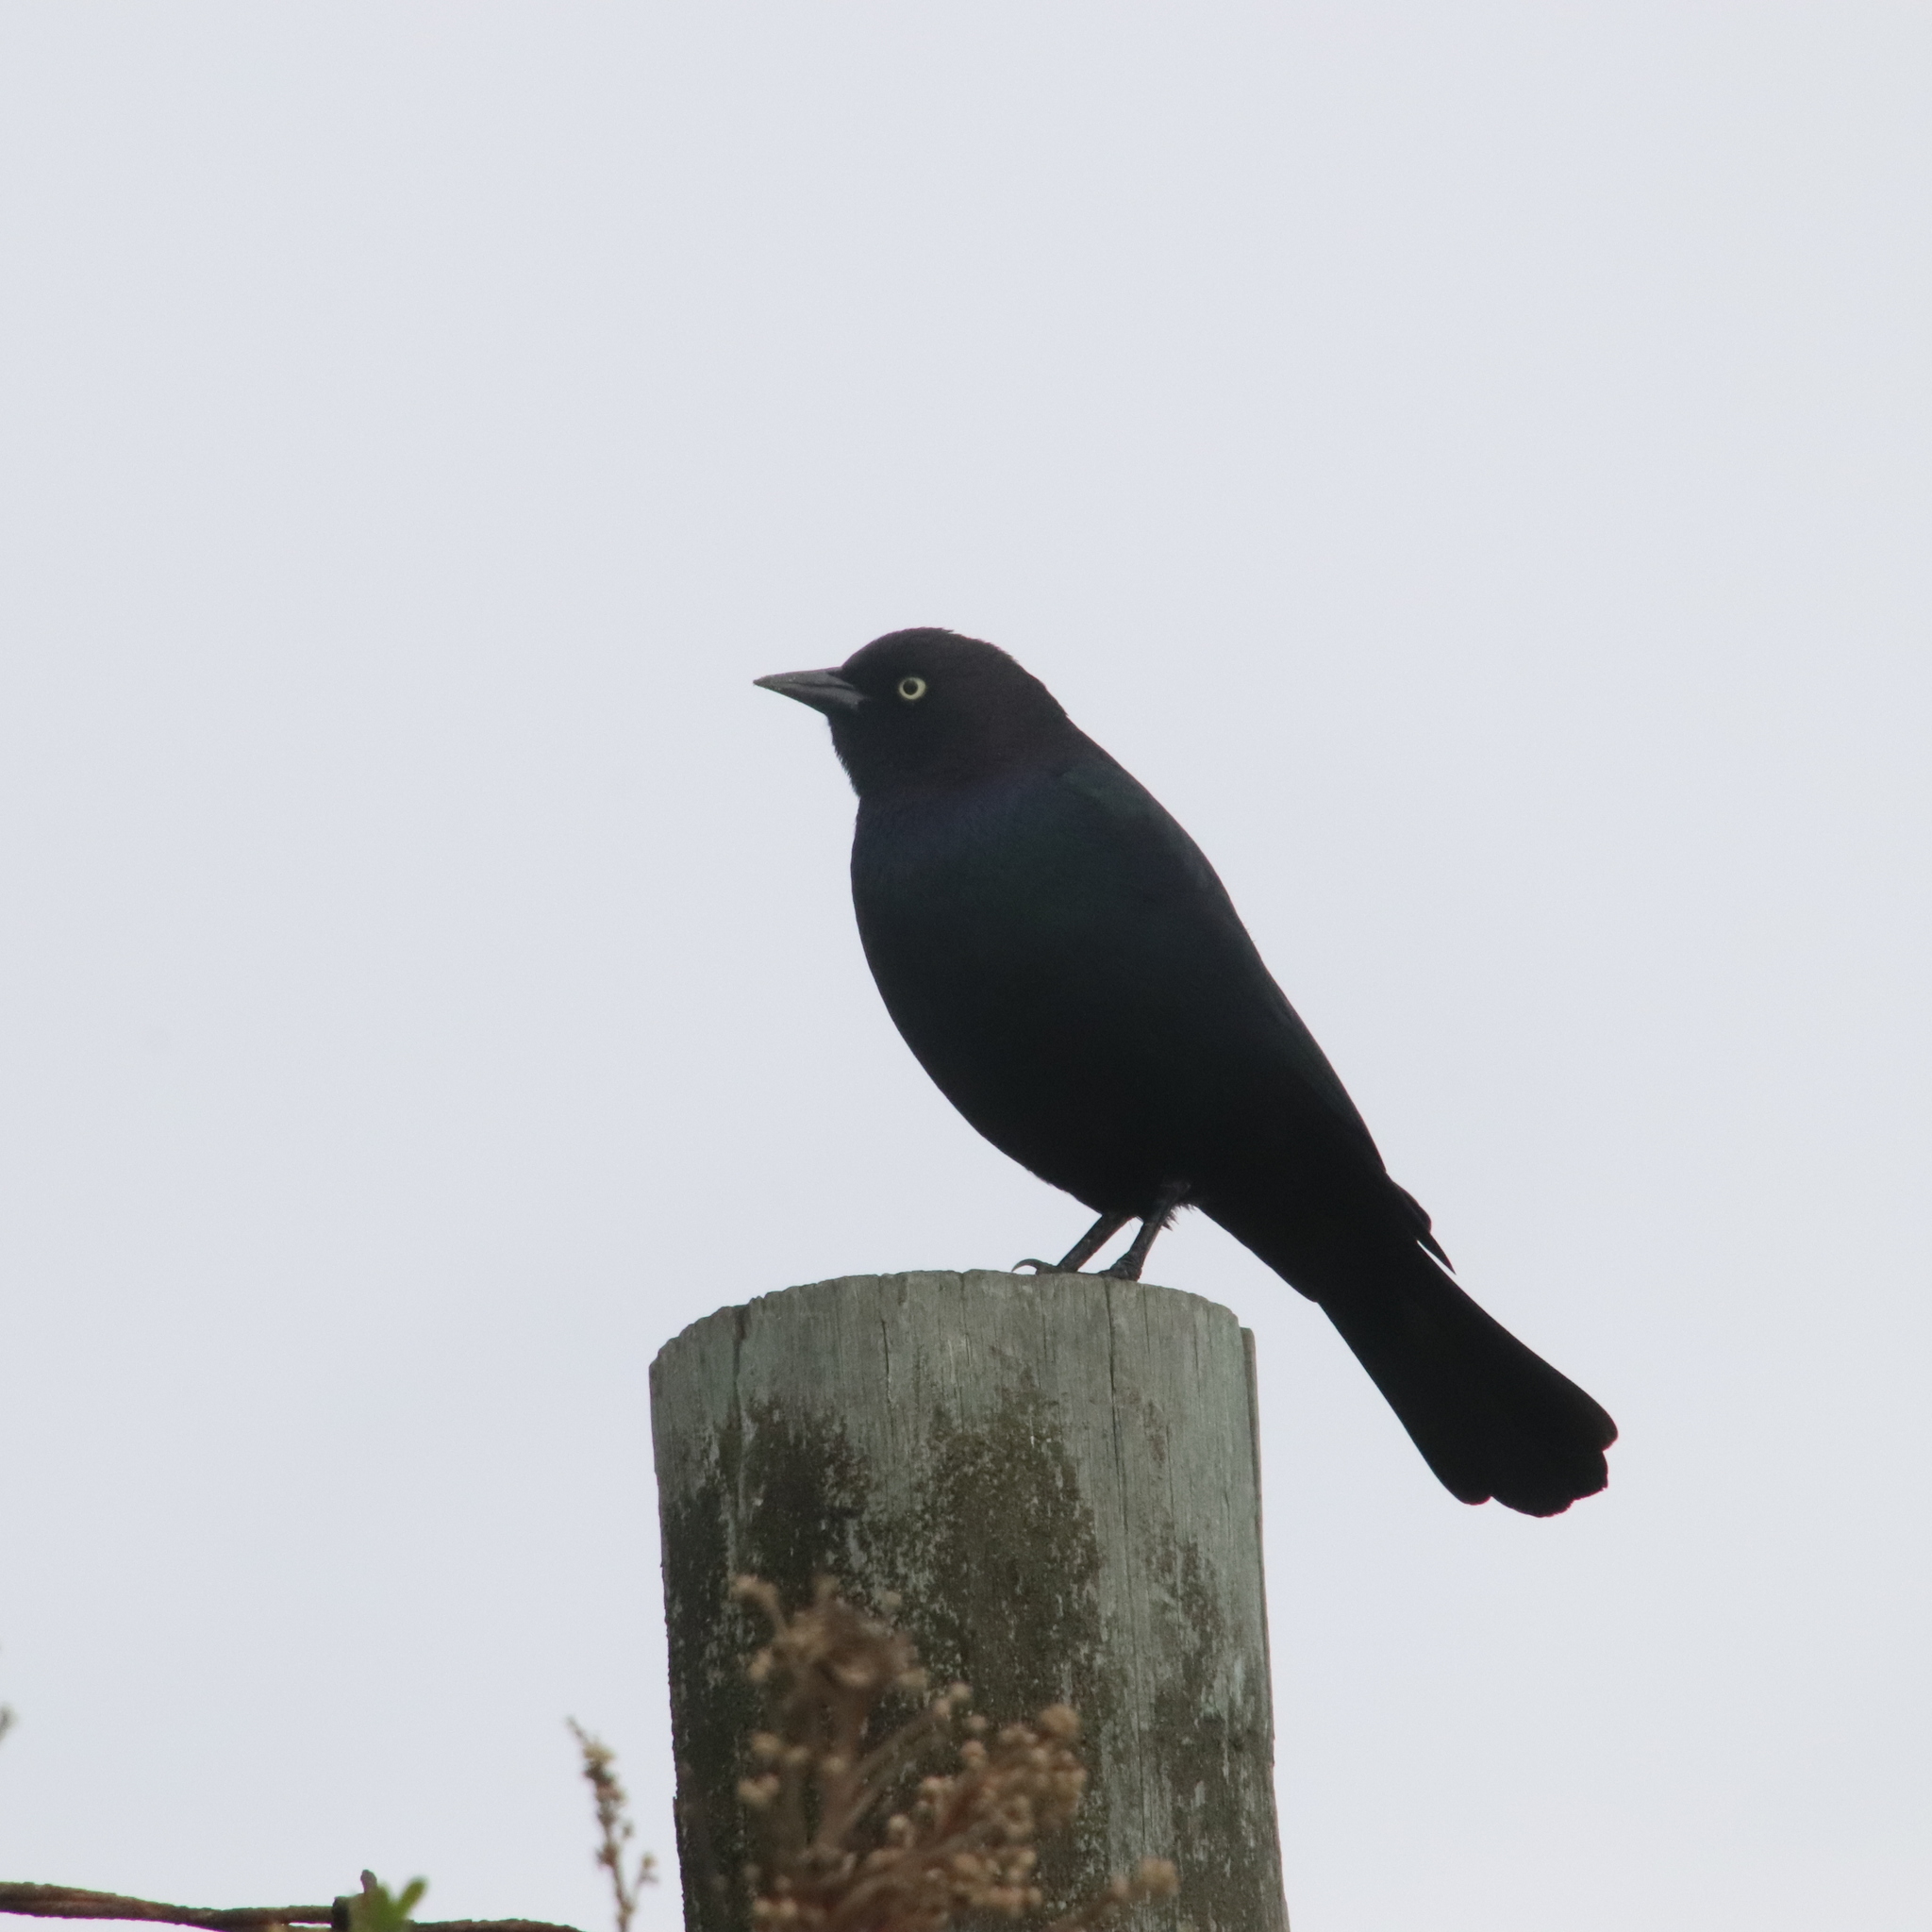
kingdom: Animalia
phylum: Chordata
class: Aves
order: Passeriformes
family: Icteridae
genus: Euphagus
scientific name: Euphagus cyanocephalus
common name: Brewer's blackbird
